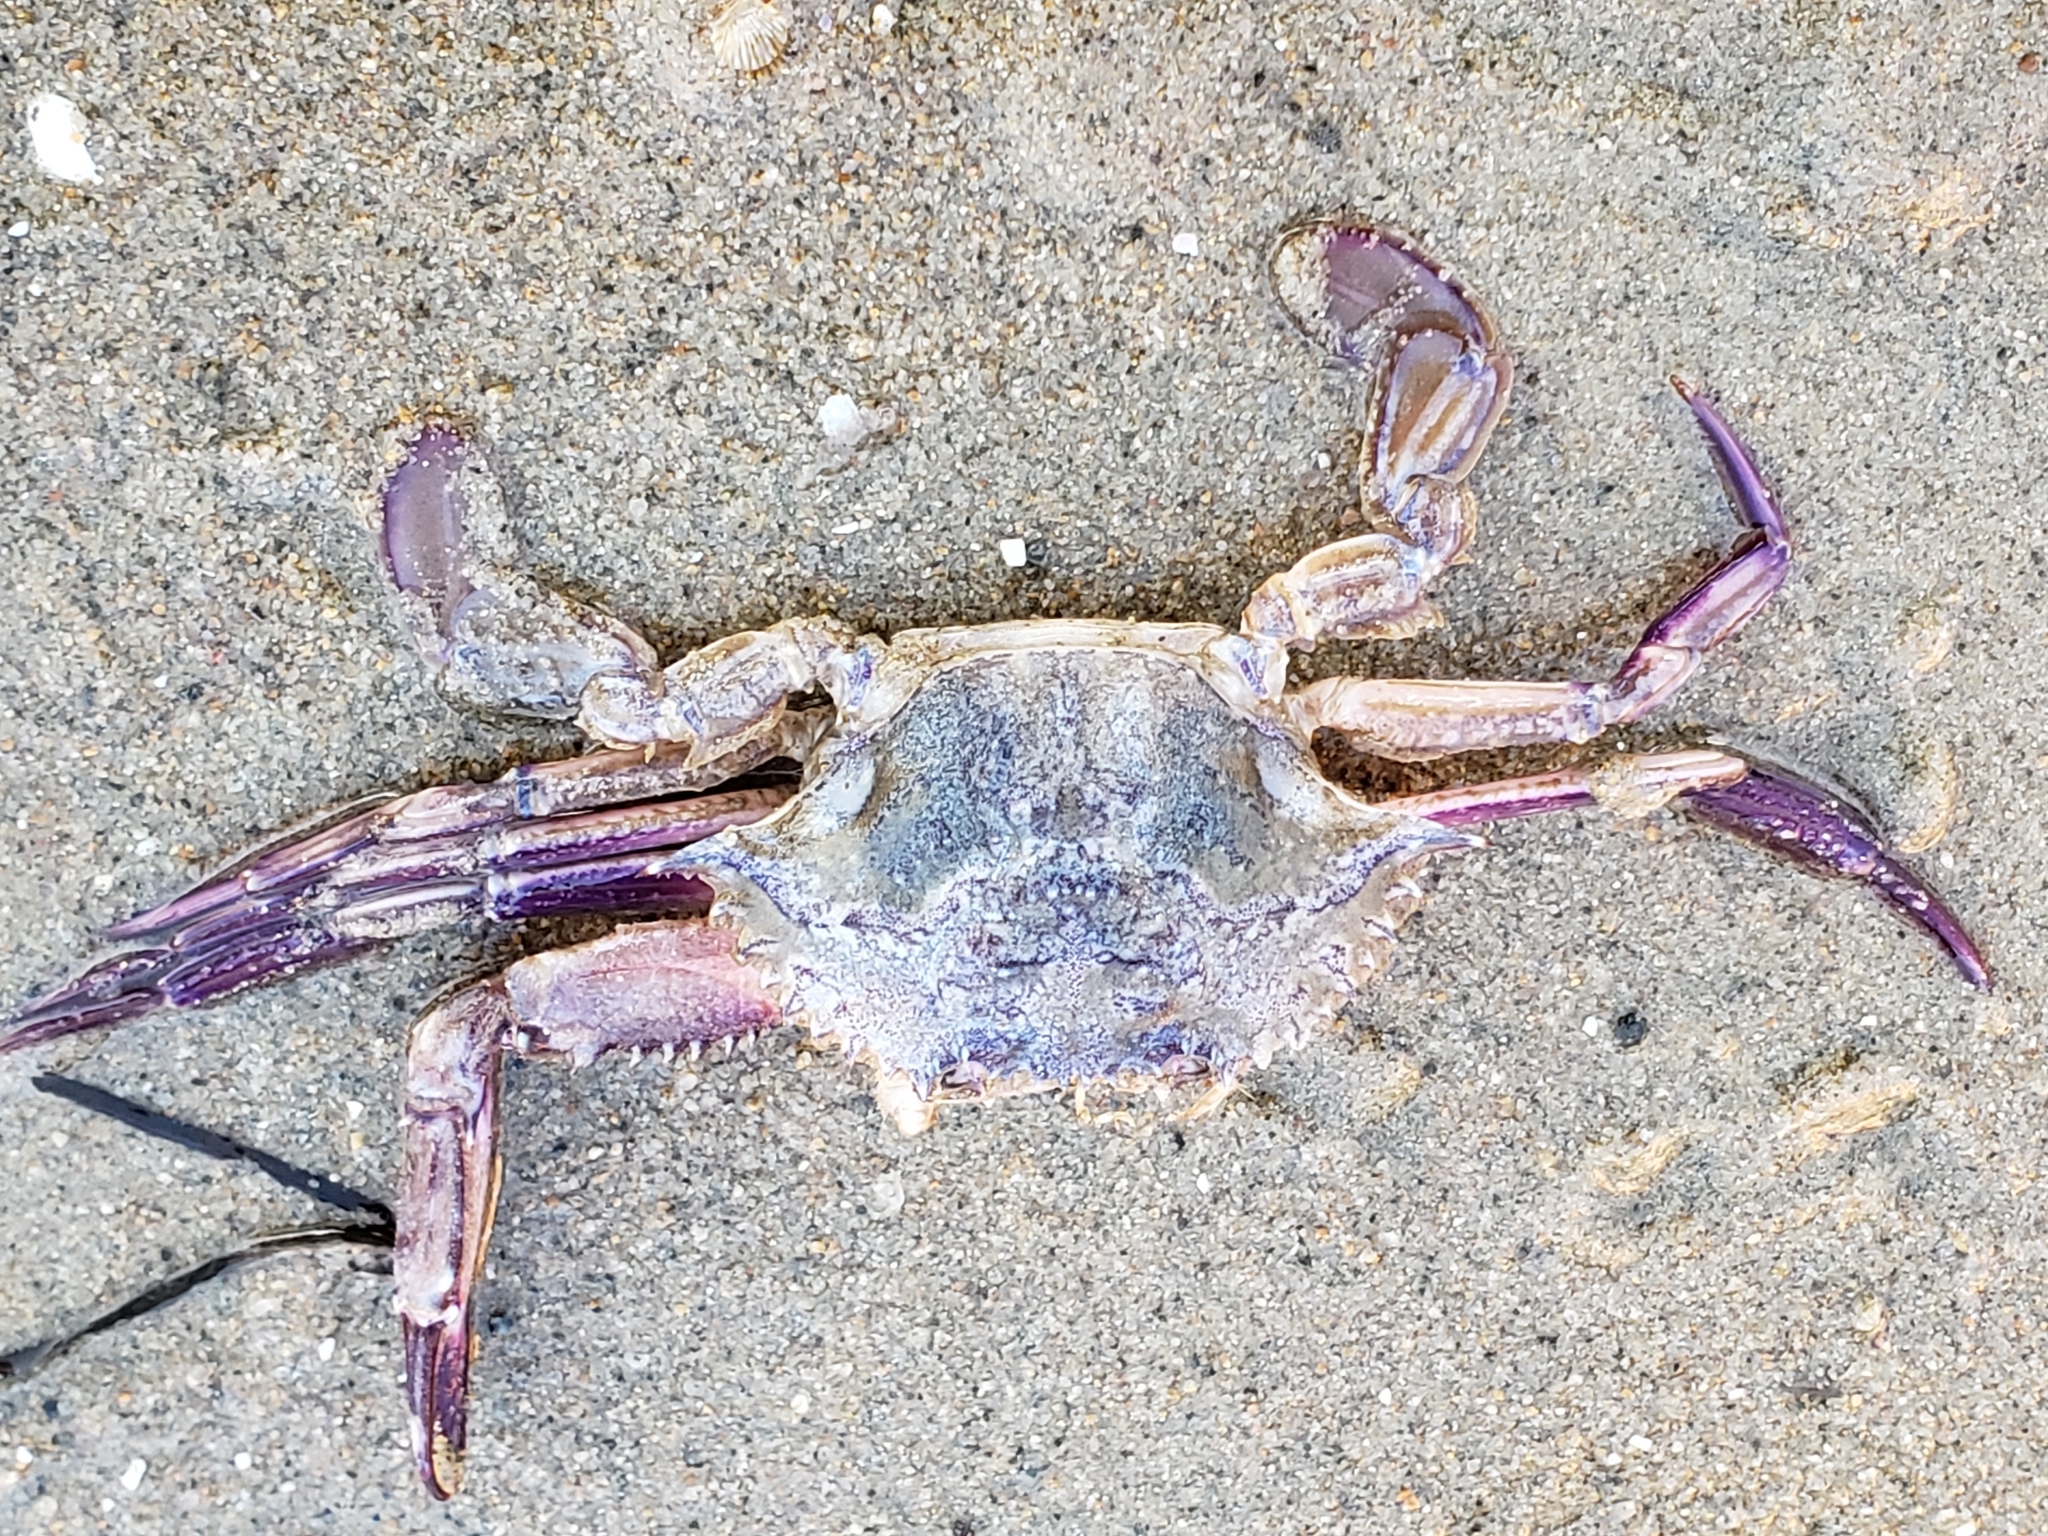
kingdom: Animalia
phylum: Arthropoda
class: Malacostraca
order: Decapoda
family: Portunidae
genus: Achelous
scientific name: Achelous xantusii
